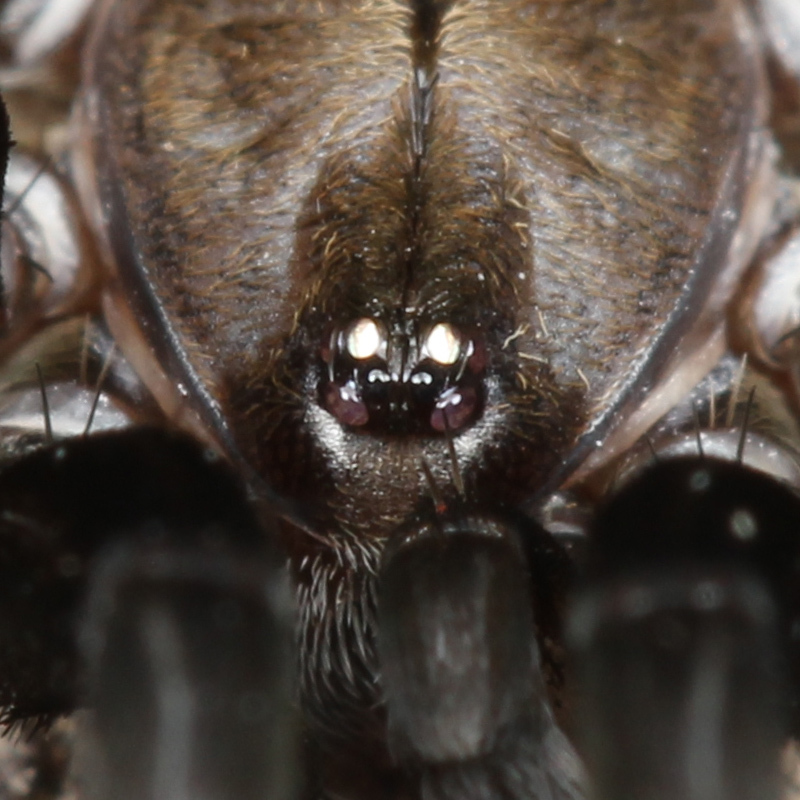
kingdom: Animalia
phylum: Arthropoda
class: Arachnida
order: Araneae
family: Filistatidae
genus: Kukulcania
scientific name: Kukulcania geophila
